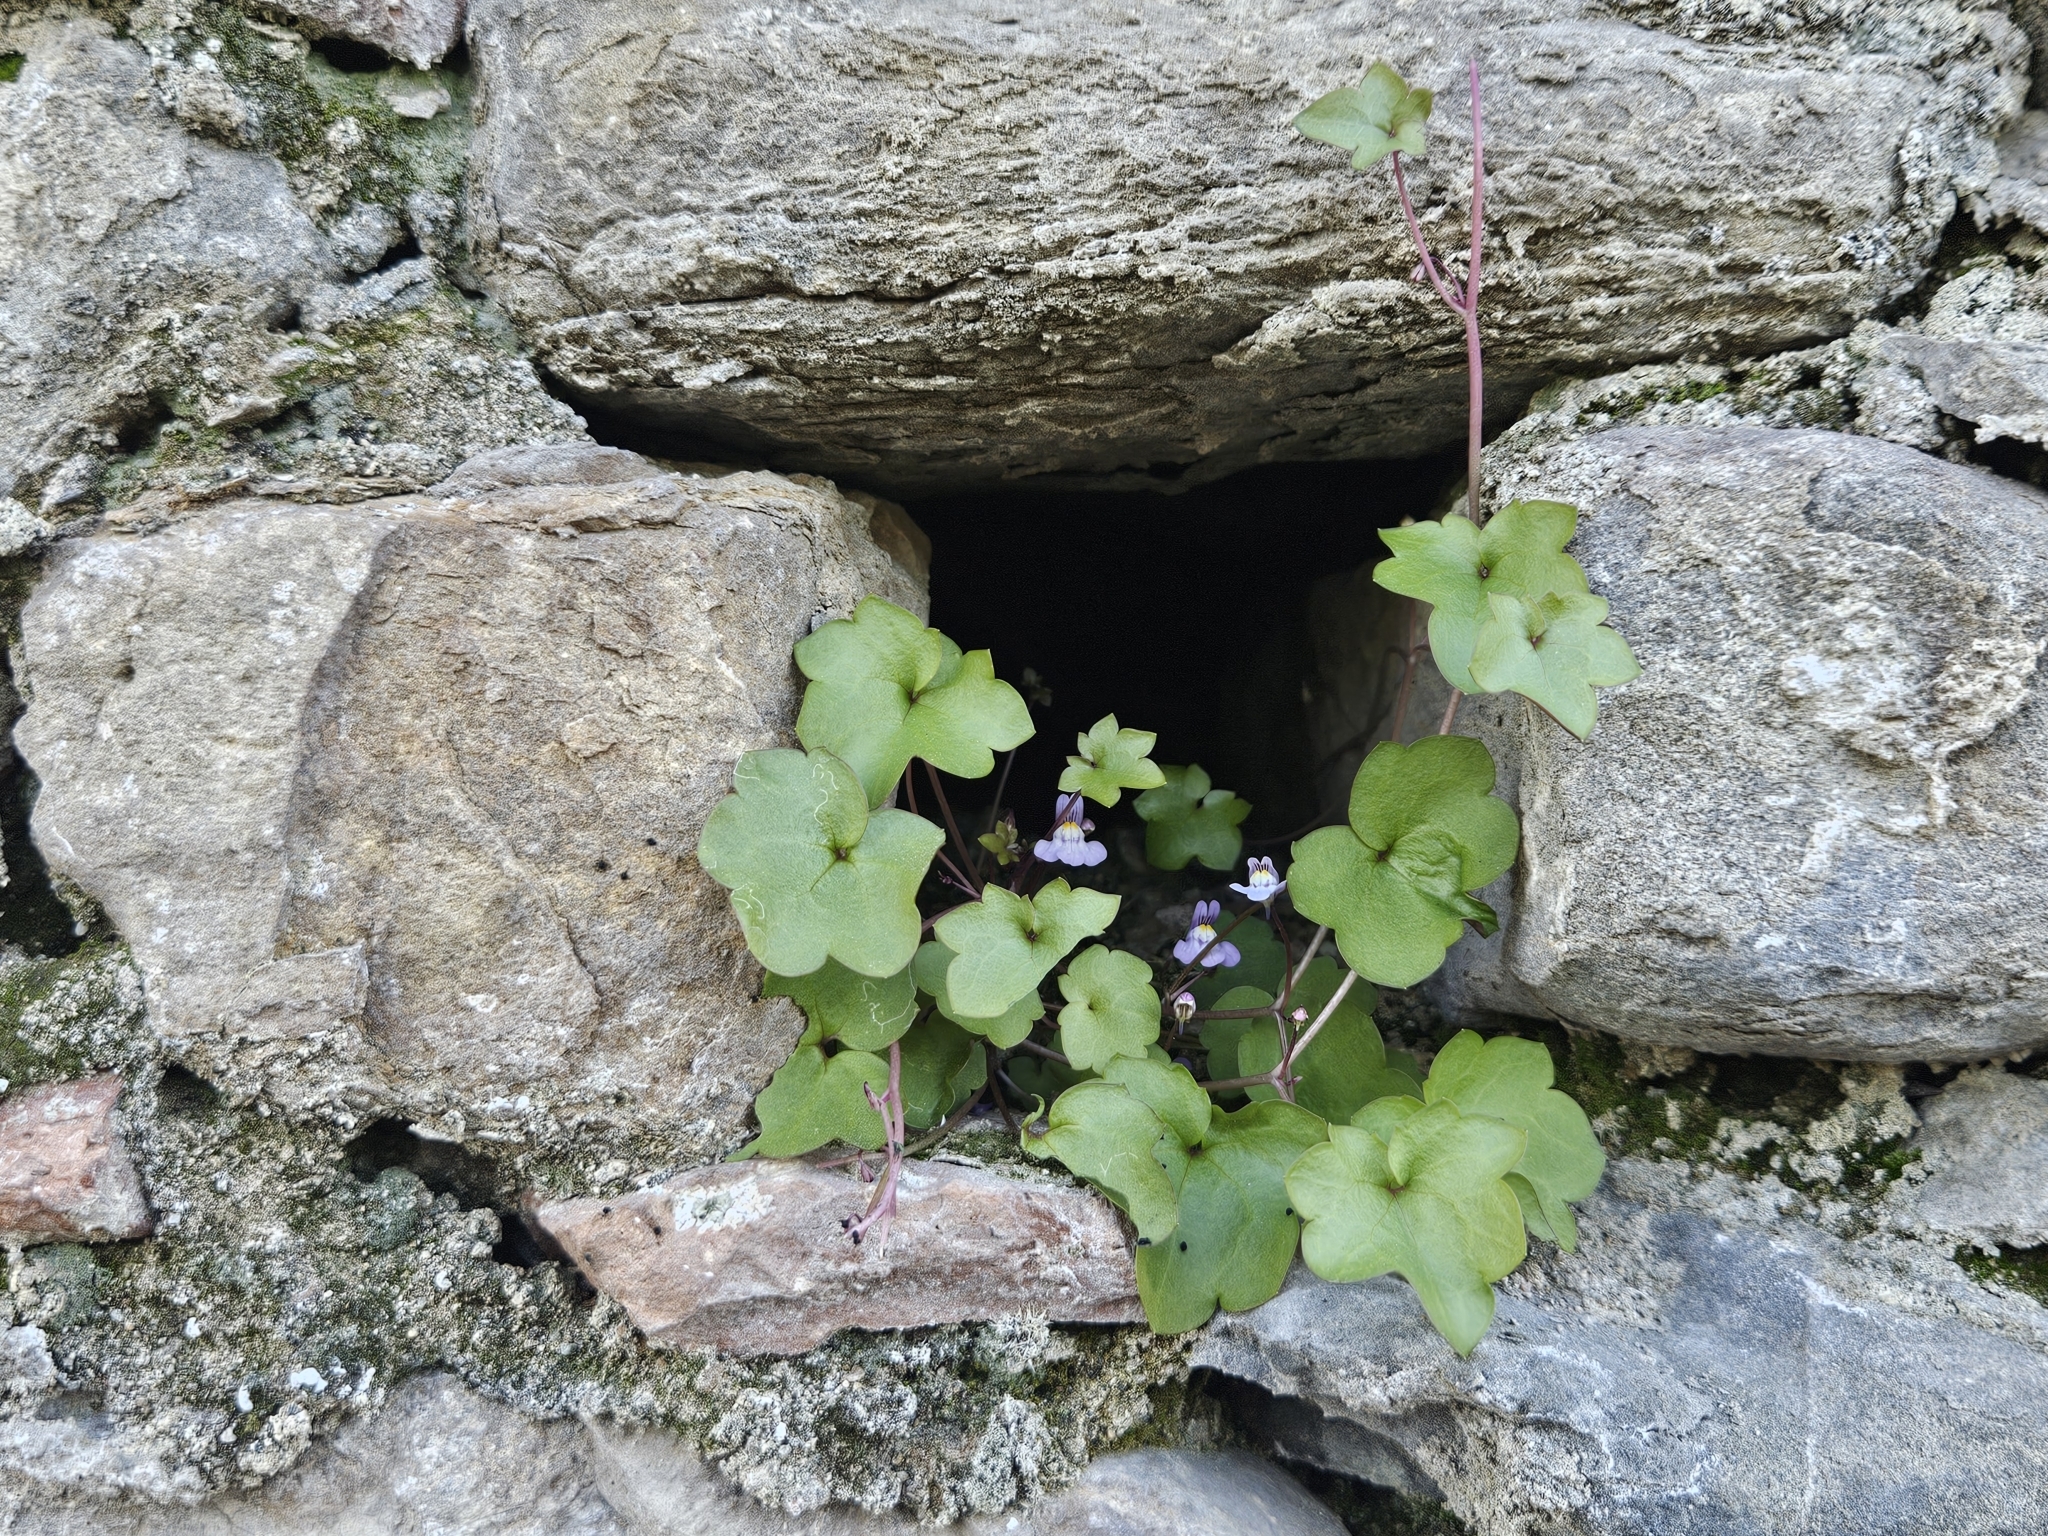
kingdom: Plantae
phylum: Tracheophyta
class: Magnoliopsida
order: Lamiales
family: Plantaginaceae
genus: Cymbalaria
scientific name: Cymbalaria muralis
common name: Ivy-leaved toadflax
